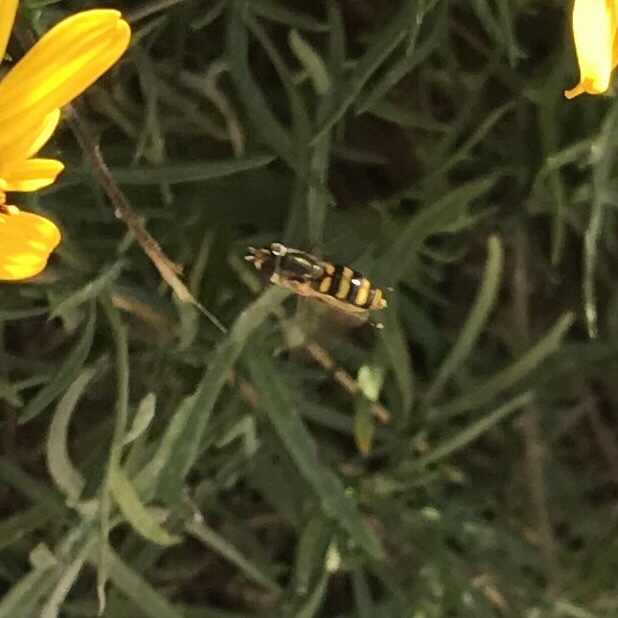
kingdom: Animalia
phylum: Arthropoda
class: Insecta
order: Diptera
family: Syrphidae
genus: Eupeodes
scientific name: Eupeodes
